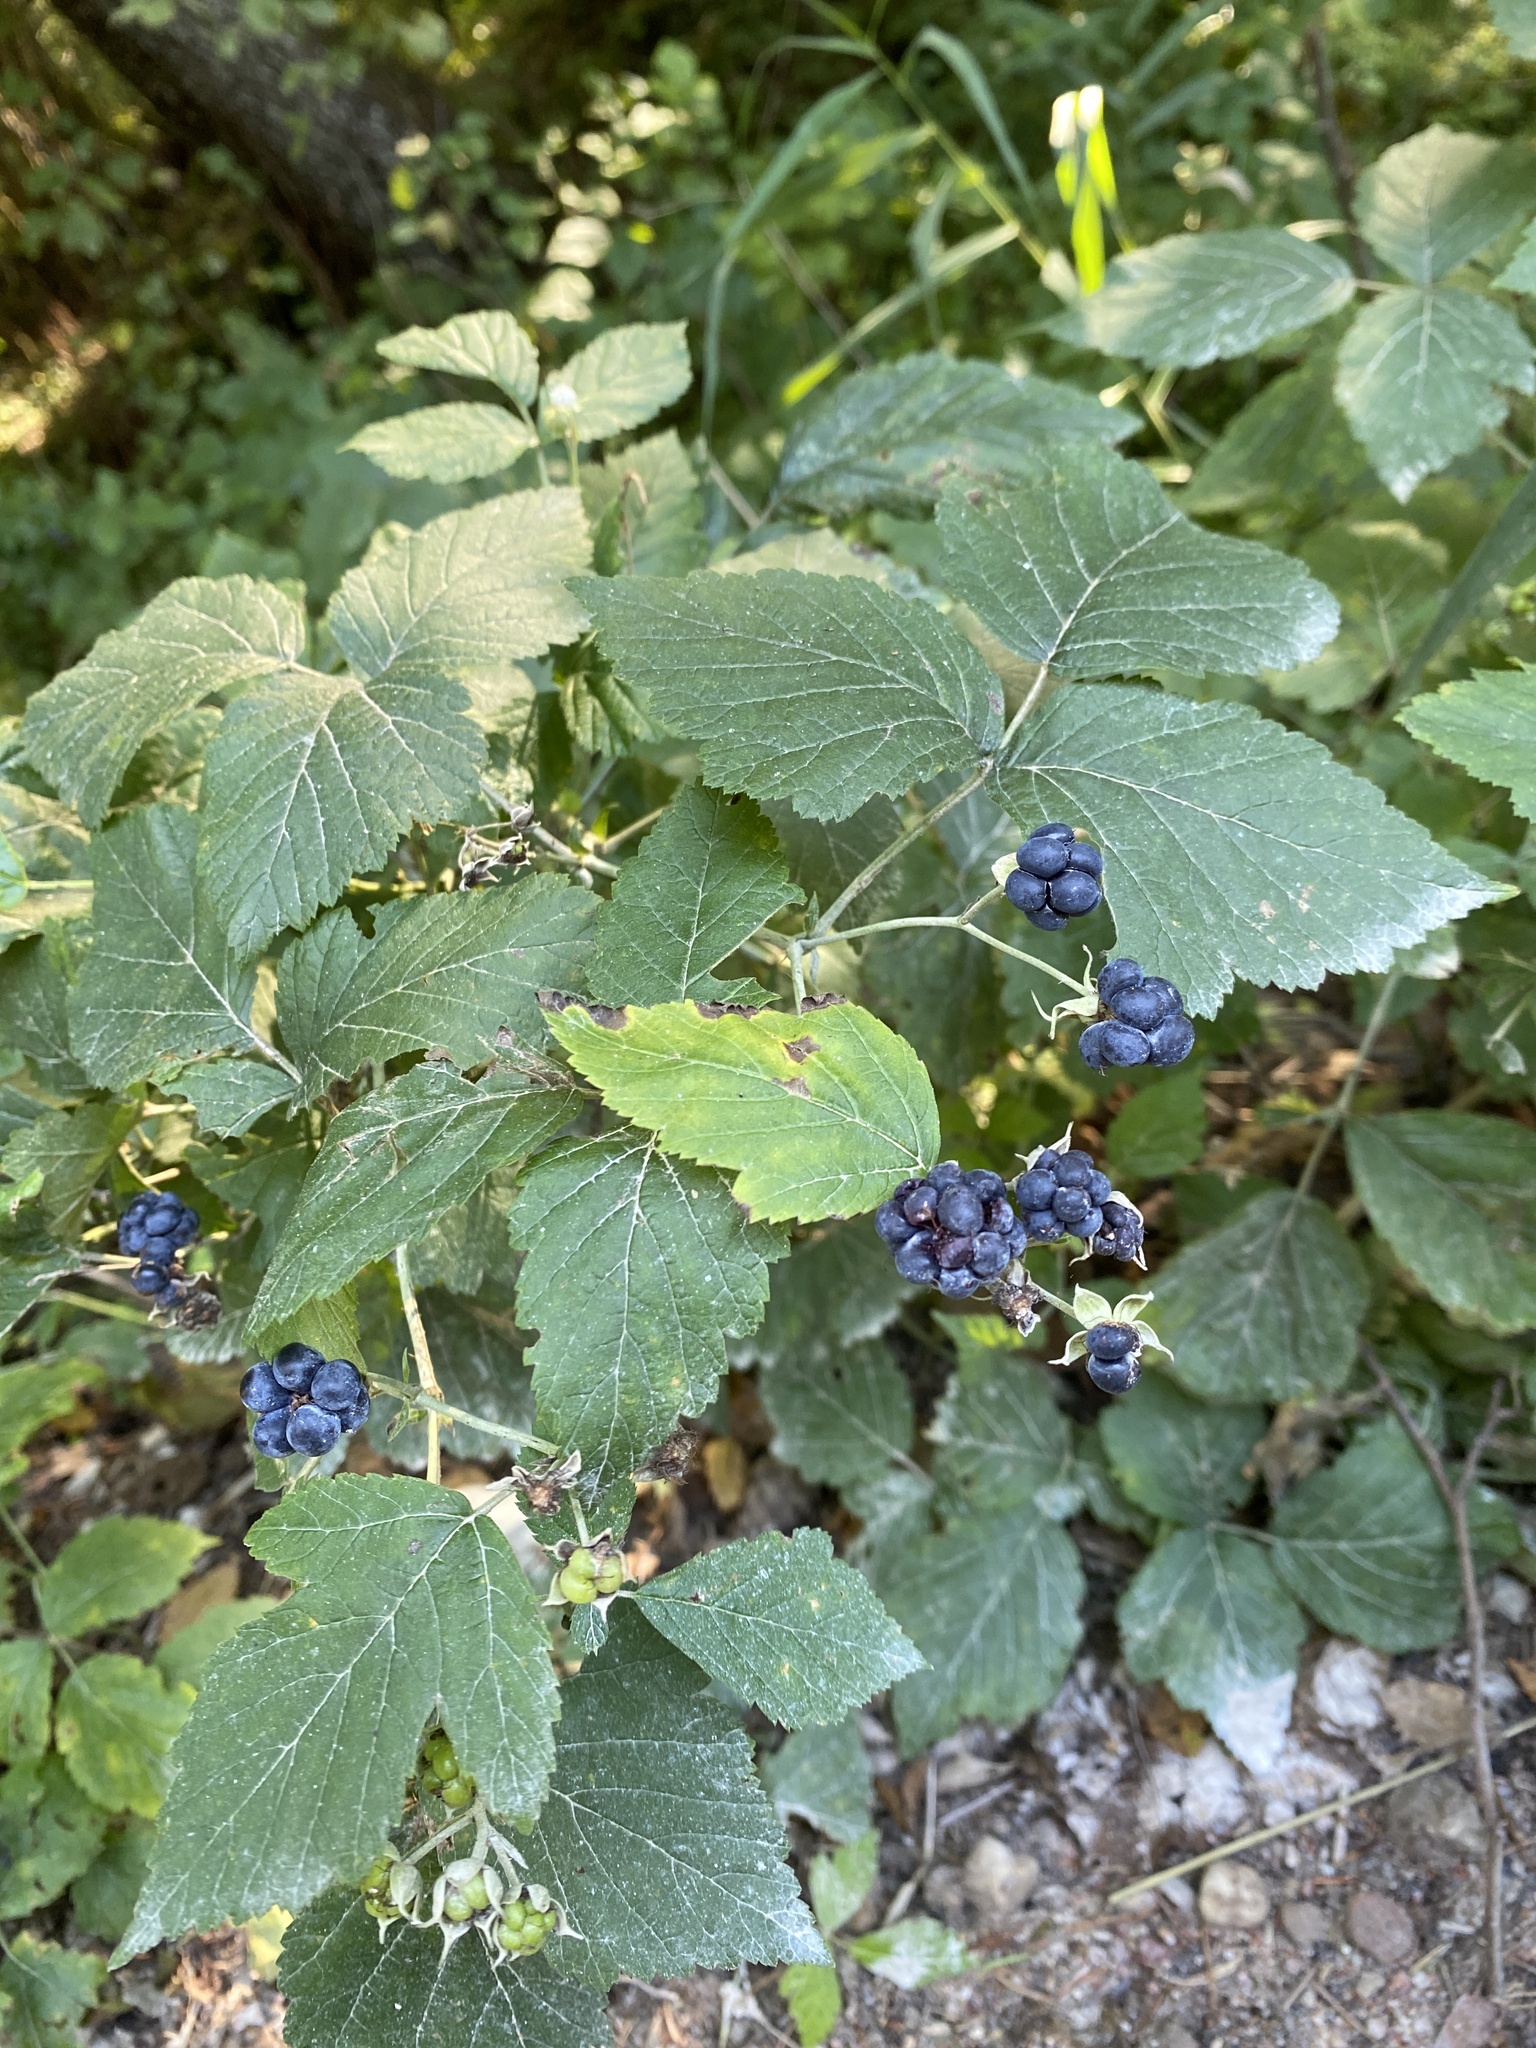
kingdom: Plantae
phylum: Tracheophyta
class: Magnoliopsida
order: Rosales
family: Rosaceae
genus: Rubus
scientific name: Rubus caesius
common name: Dewberry
